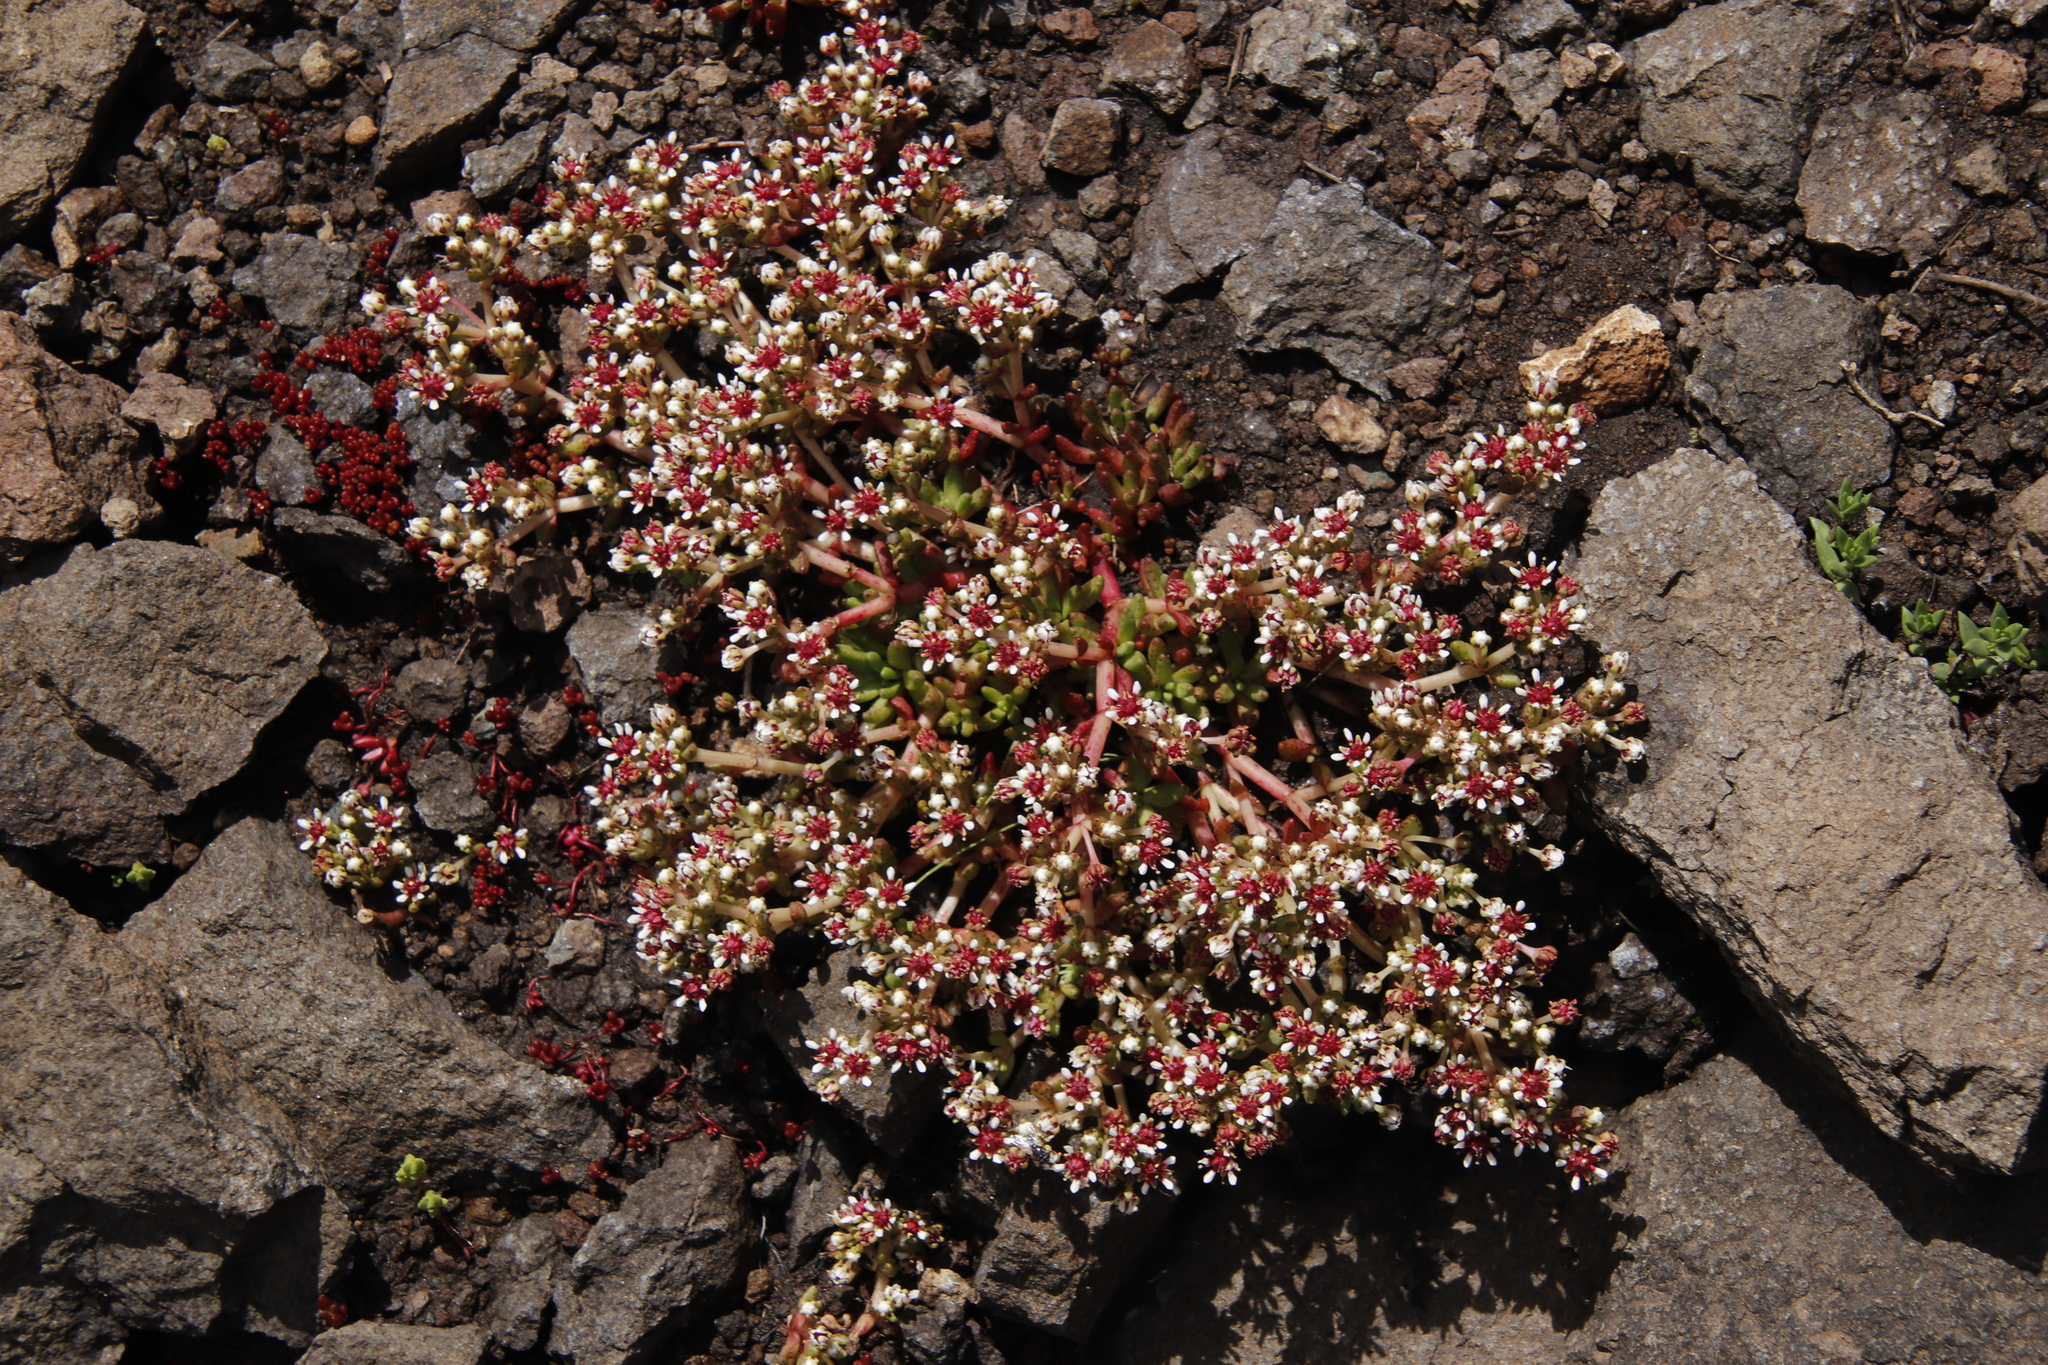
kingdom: Plantae
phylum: Tracheophyta
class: Magnoliopsida
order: Saxifragales
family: Crassulaceae
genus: Crassula
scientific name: Crassula peploides
